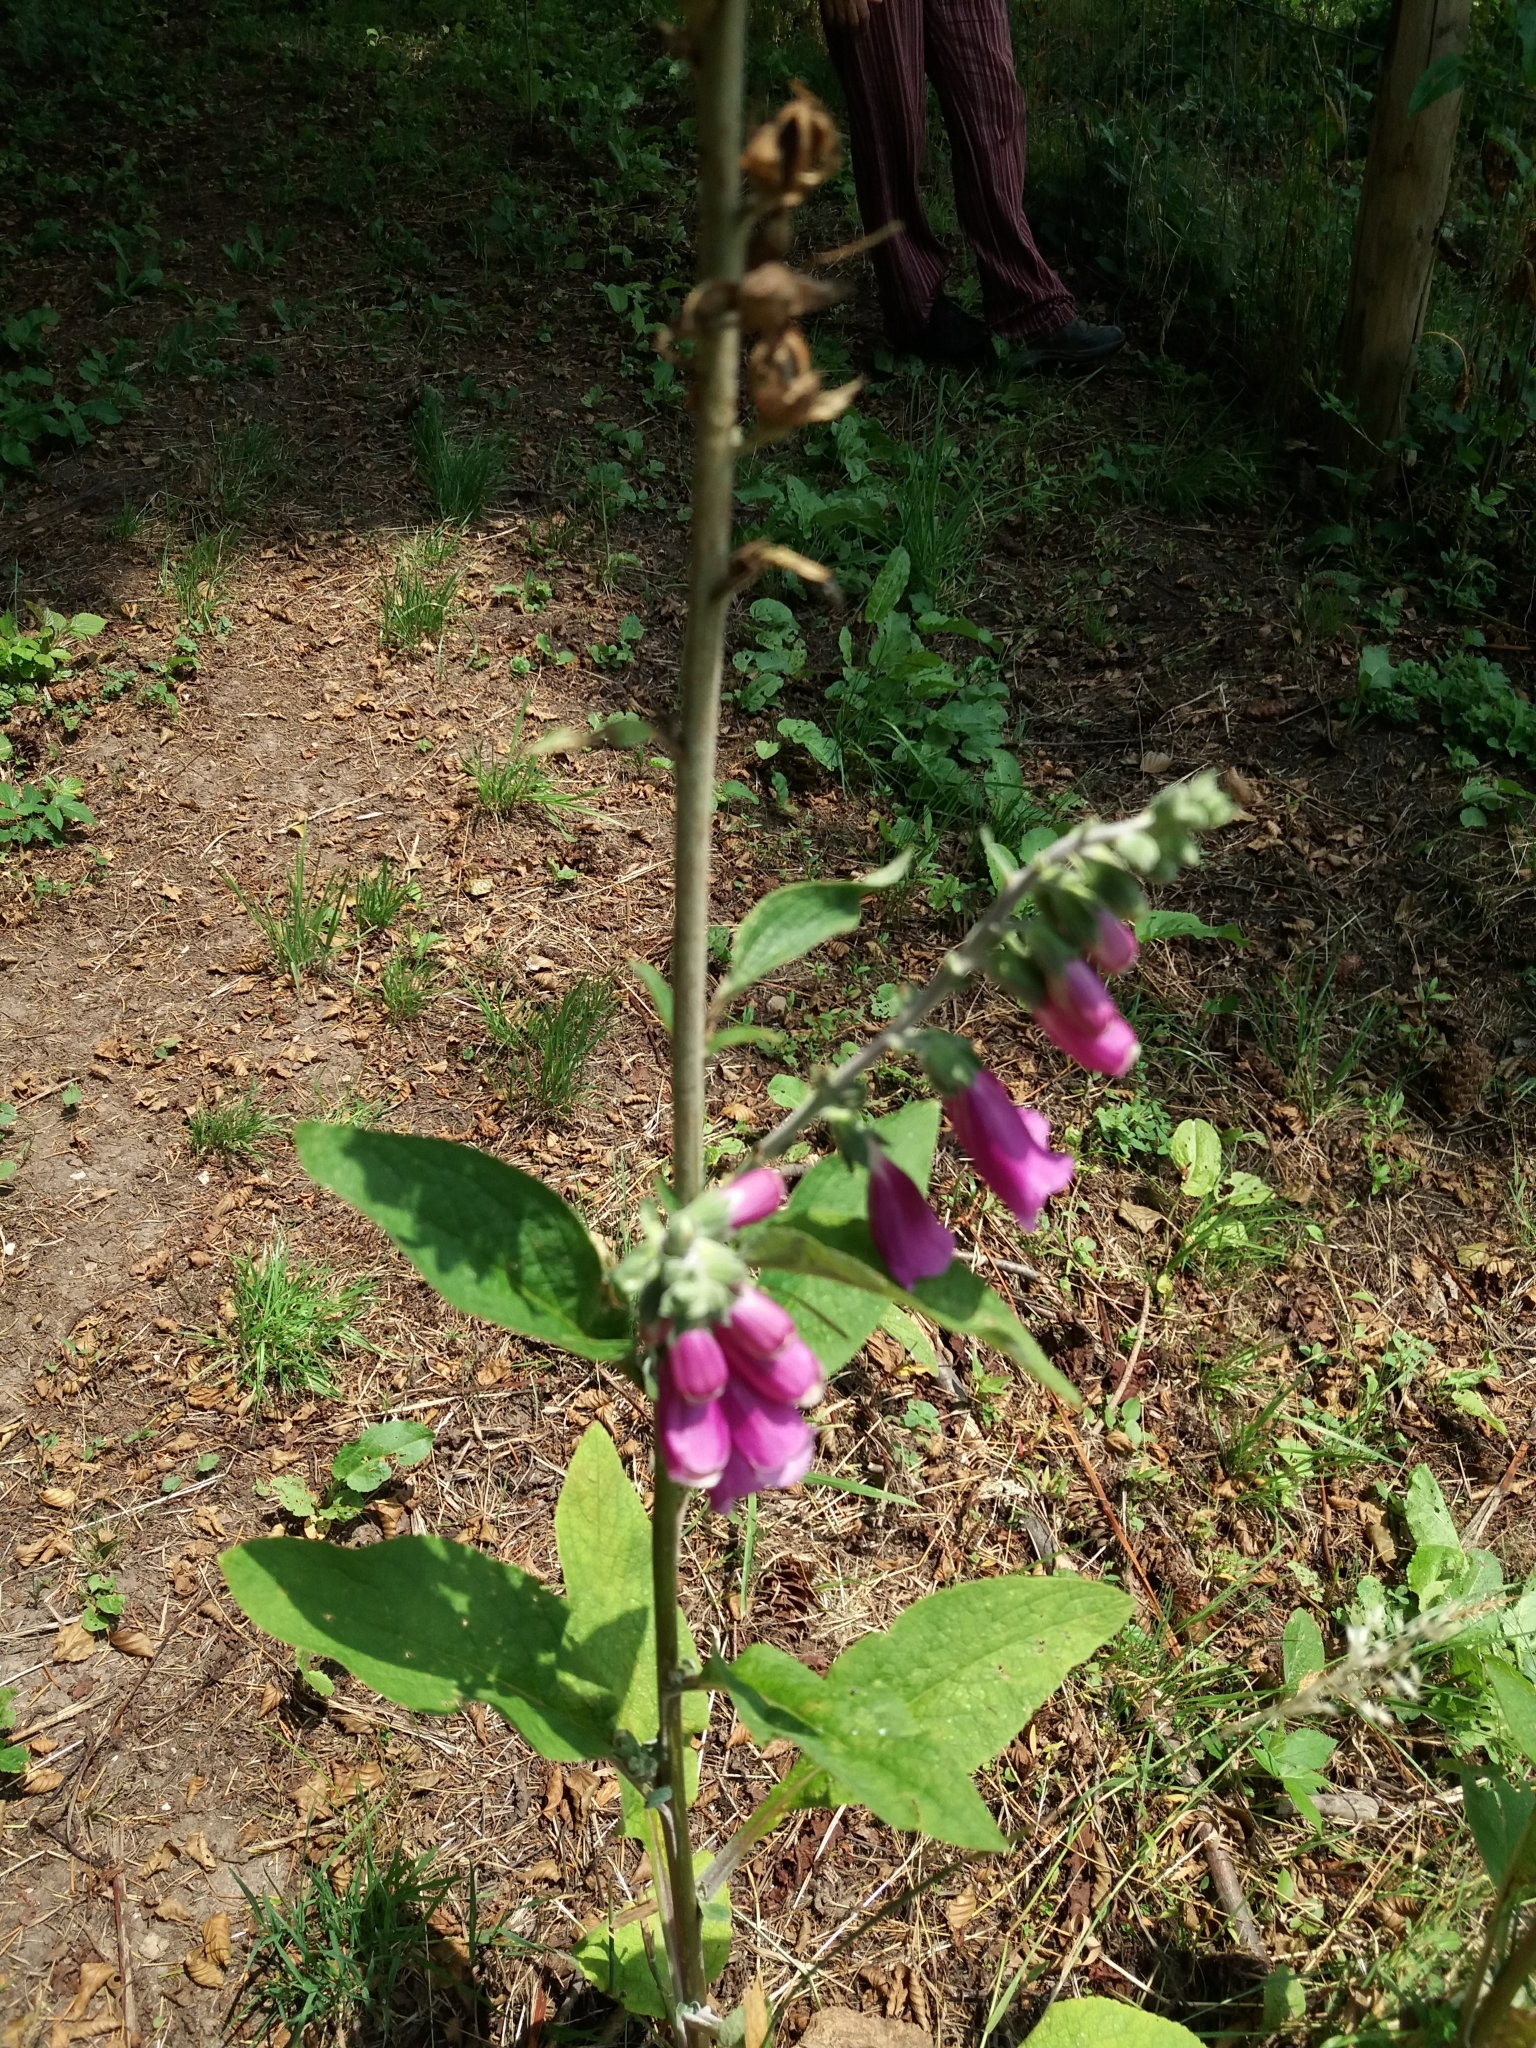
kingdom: Plantae
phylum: Tracheophyta
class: Magnoliopsida
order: Lamiales
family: Plantaginaceae
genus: Digitalis
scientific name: Digitalis purpurea
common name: Foxglove
